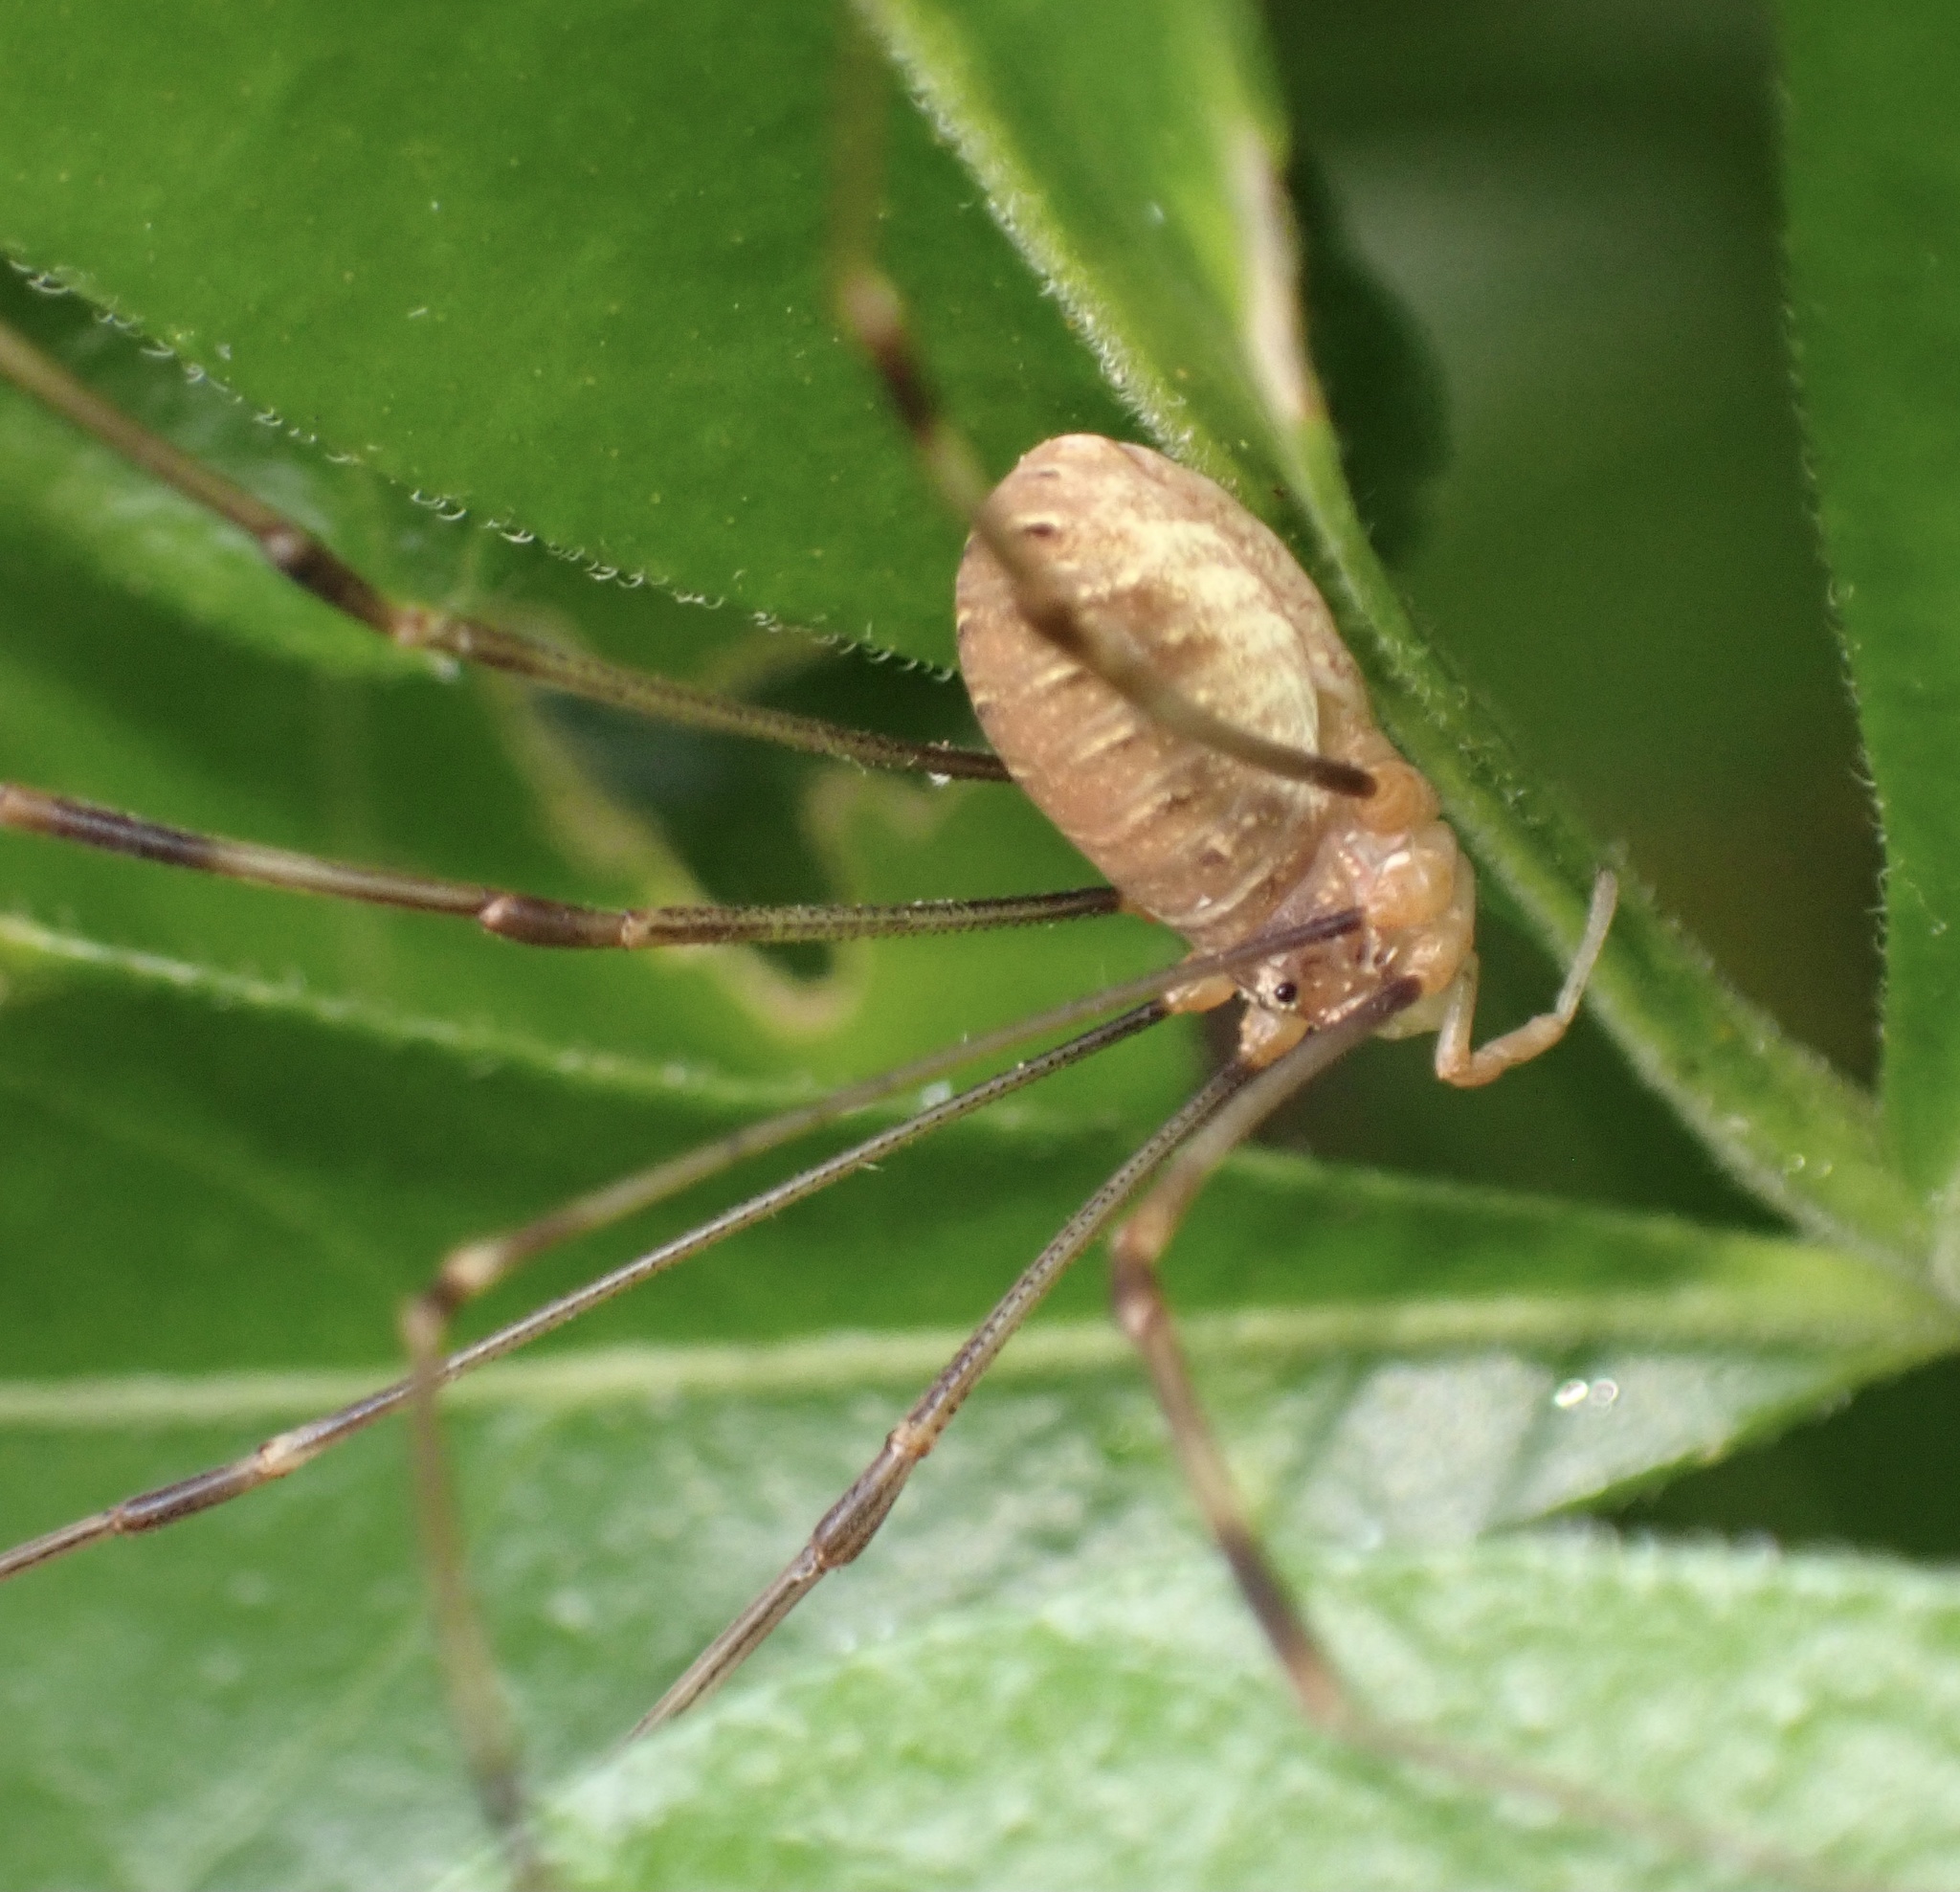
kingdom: Animalia
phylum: Arthropoda
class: Arachnida
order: Opiliones
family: Phalangiidae
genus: Opilio
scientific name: Opilio canestrinii
